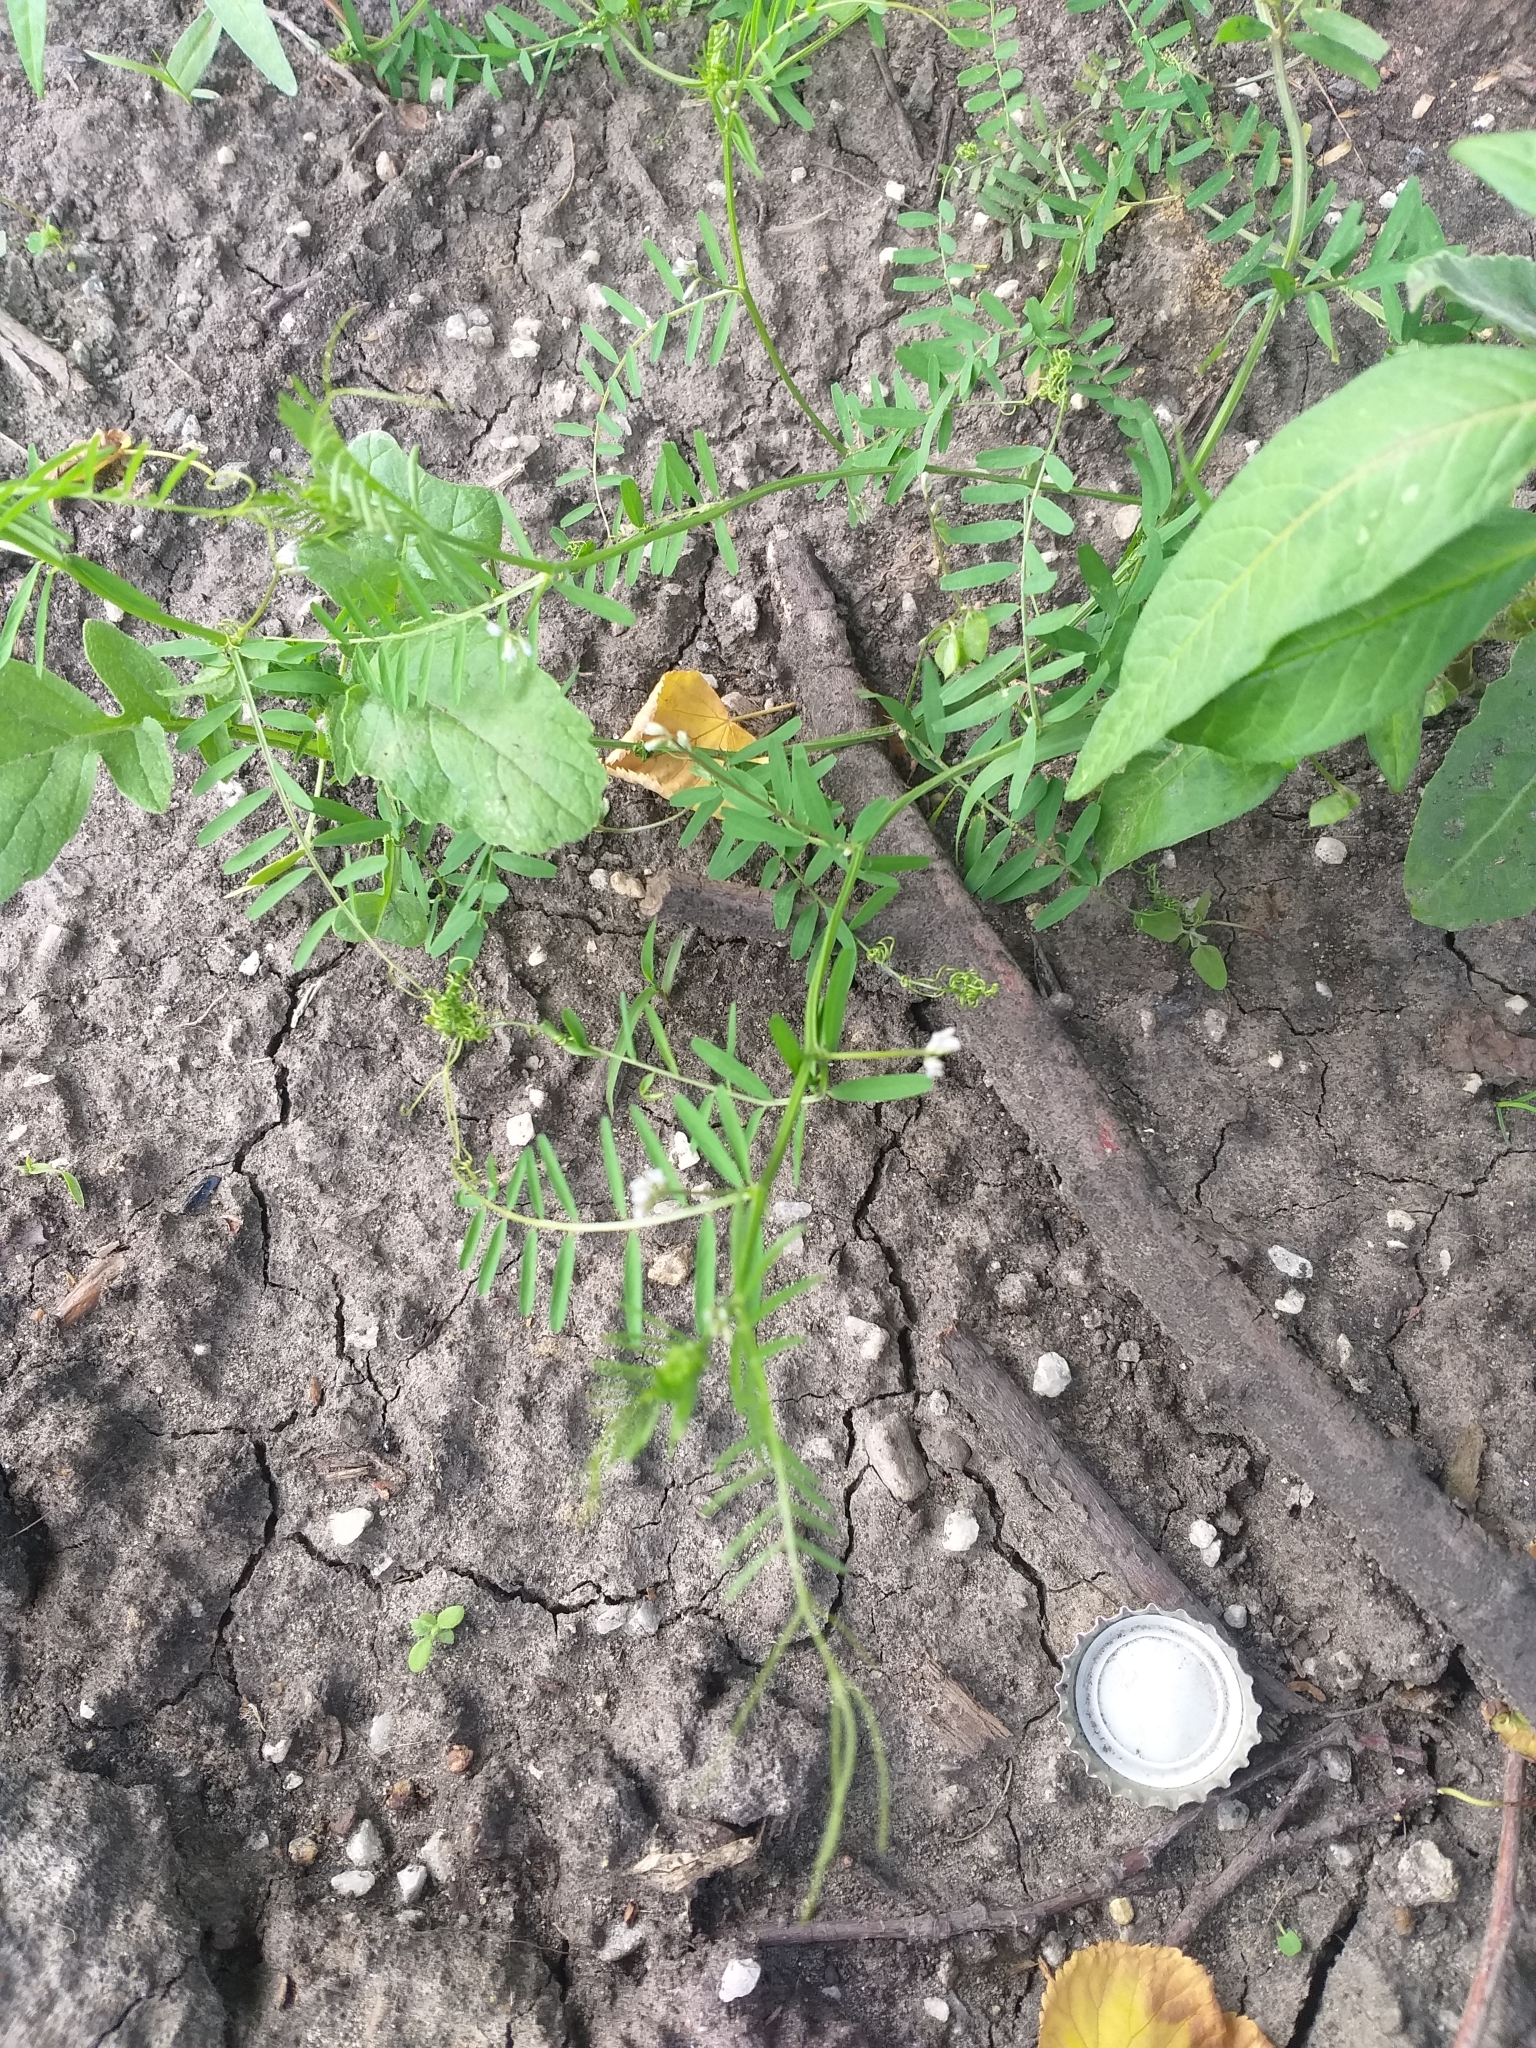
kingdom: Plantae
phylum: Tracheophyta
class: Magnoliopsida
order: Fabales
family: Fabaceae
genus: Vicia
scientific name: Vicia hirsuta
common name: Tiny vetch
